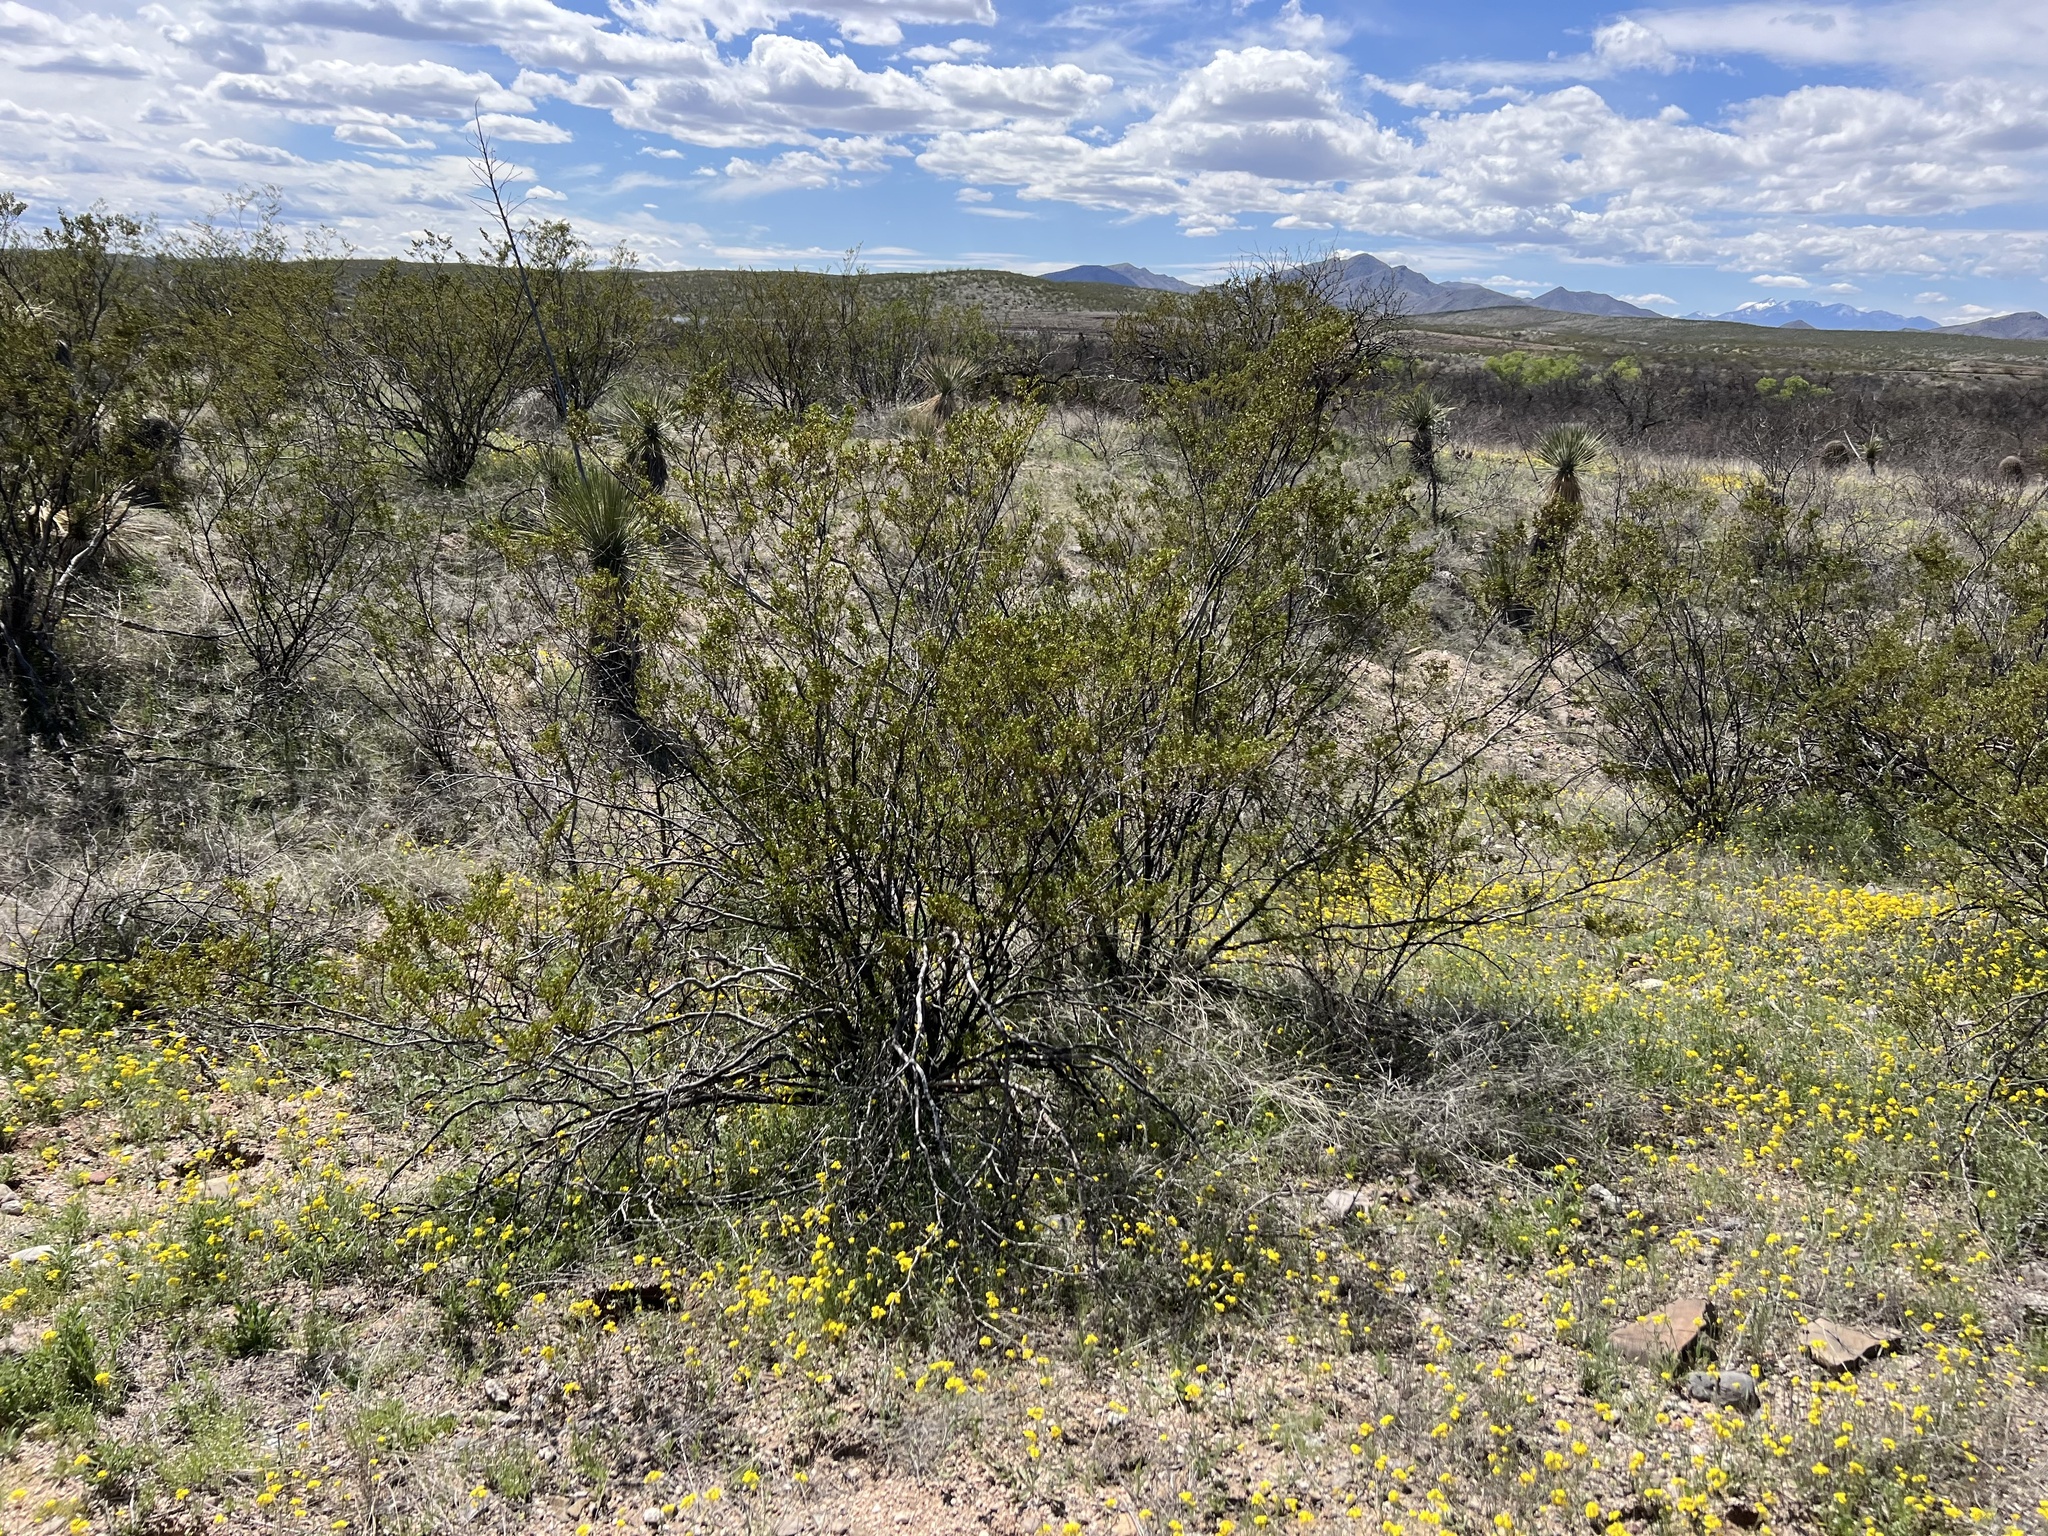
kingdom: Plantae
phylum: Tracheophyta
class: Magnoliopsida
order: Zygophyllales
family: Zygophyllaceae
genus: Larrea
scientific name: Larrea tridentata
